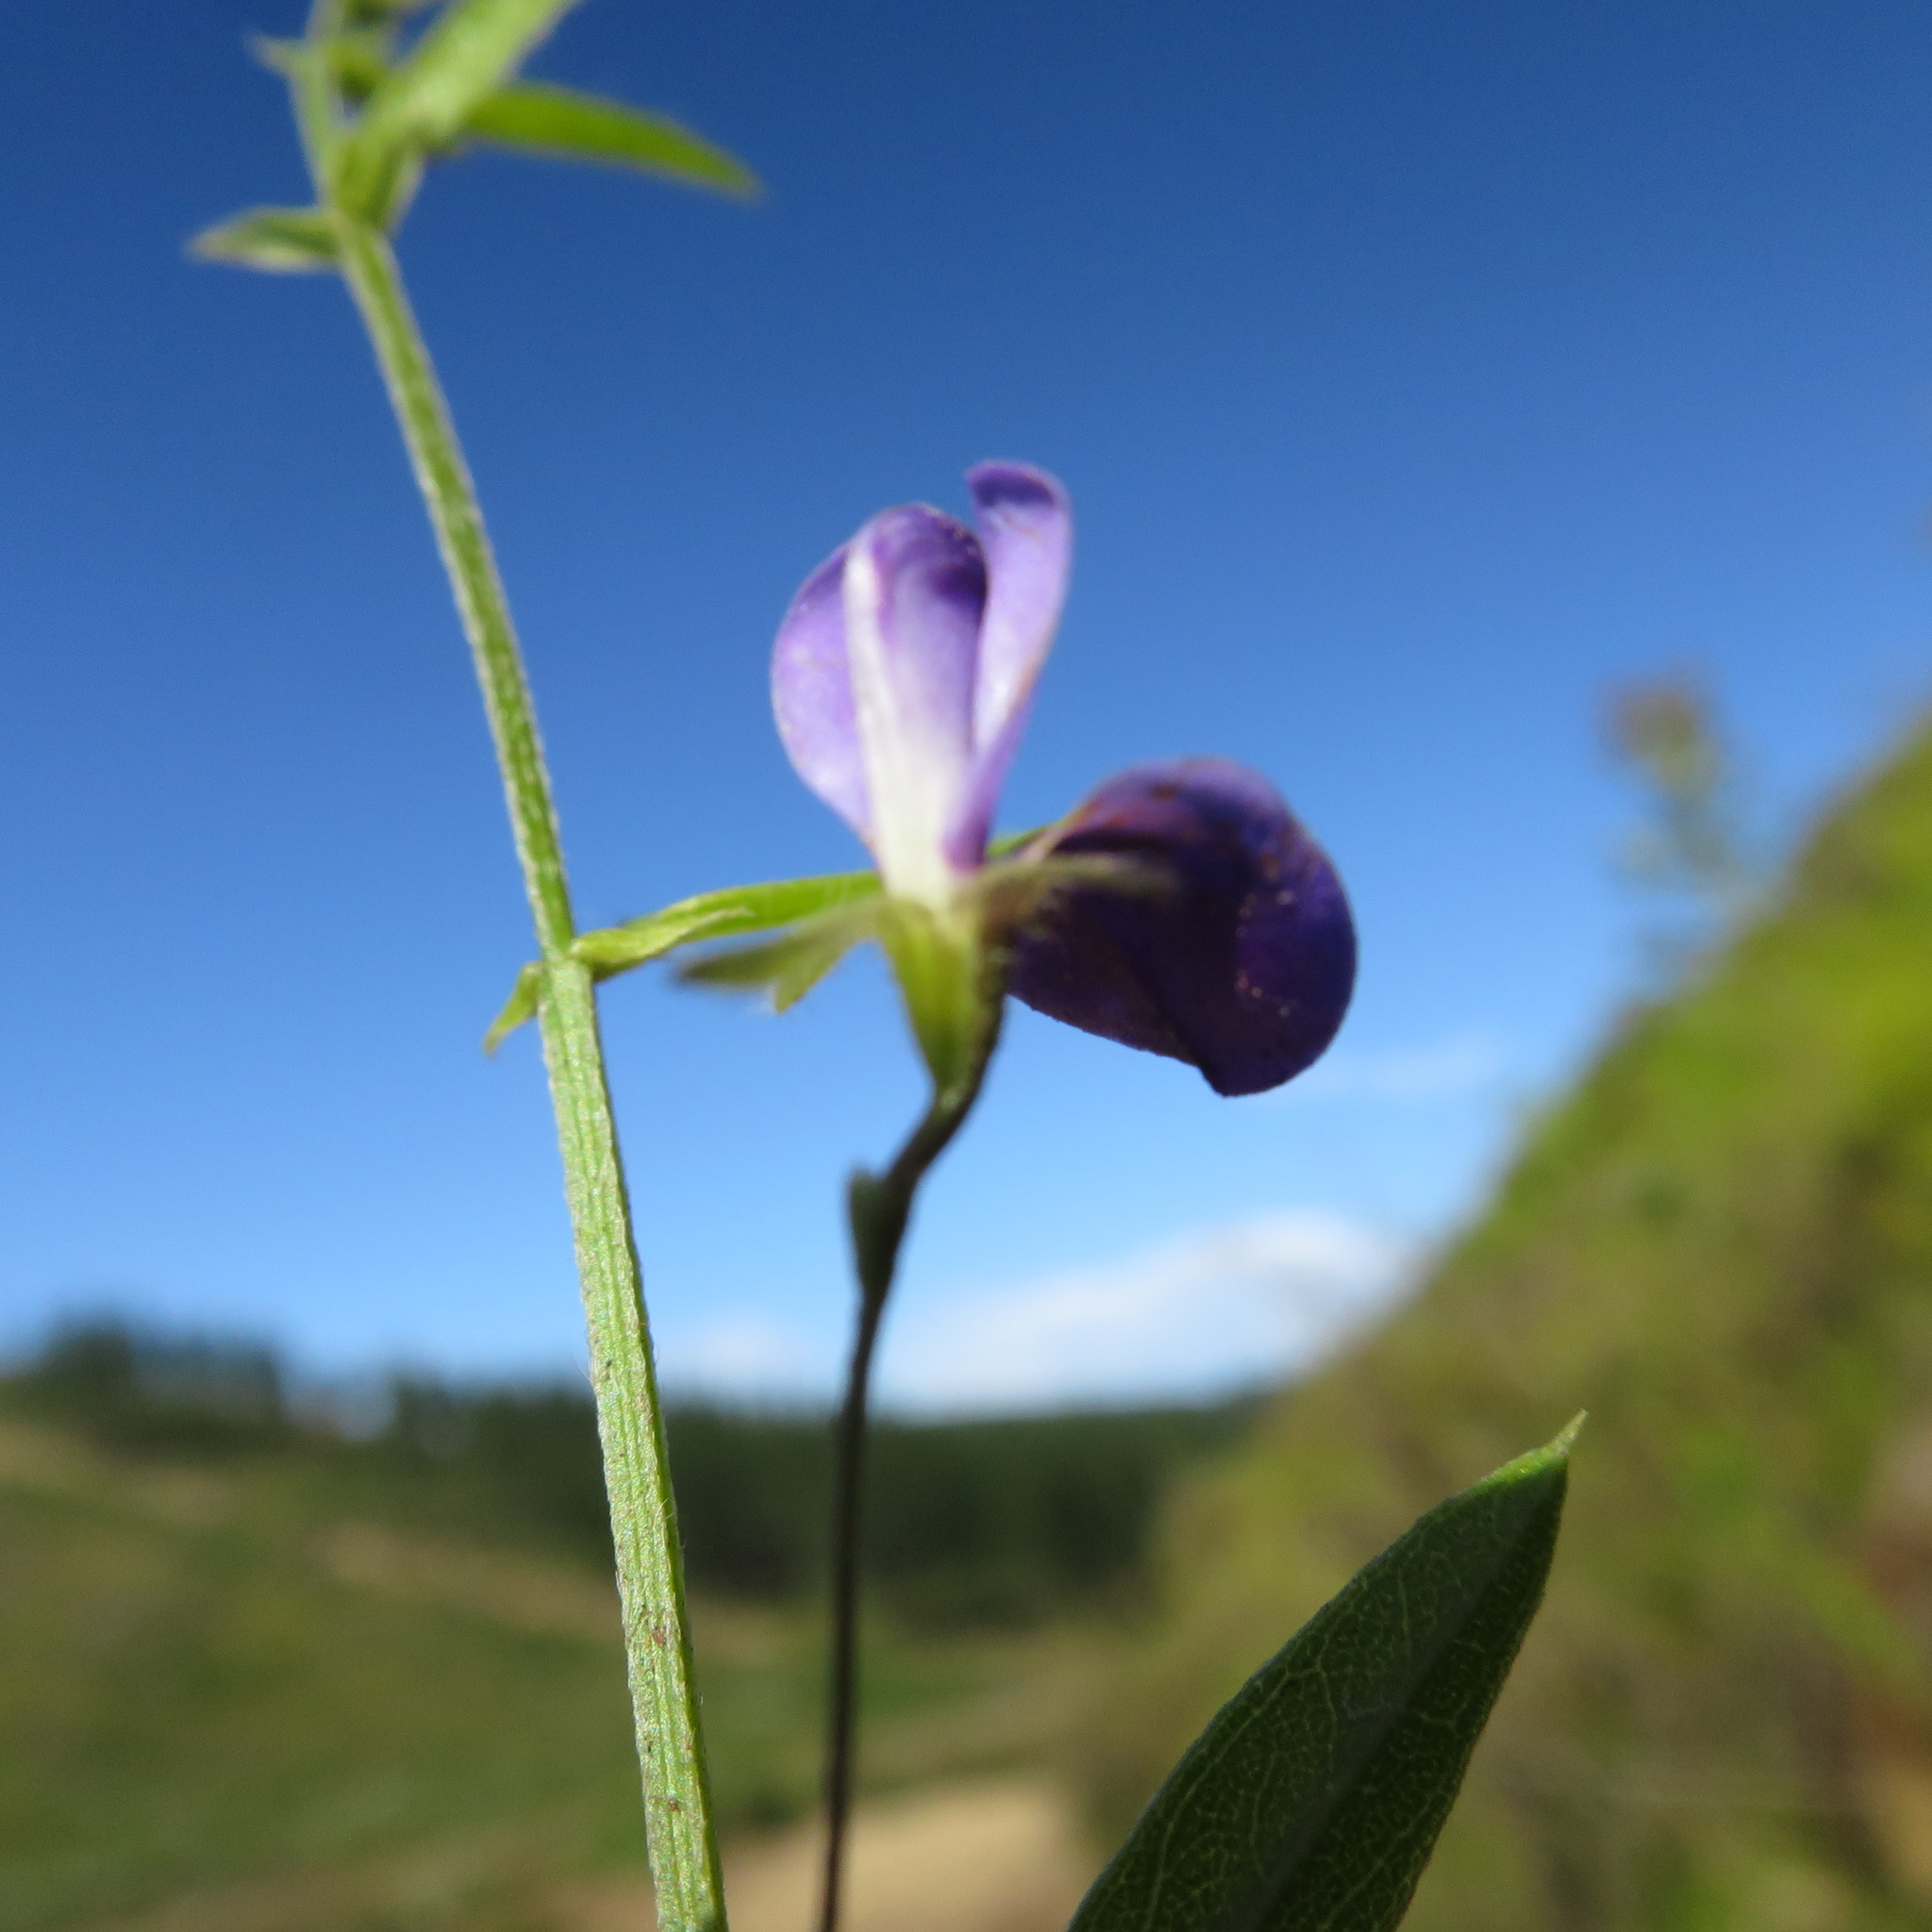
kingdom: Plantae
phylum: Tracheophyta
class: Magnoliopsida
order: Fabales
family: Fabaceae
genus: Psoralea
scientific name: Psoralea asarina
